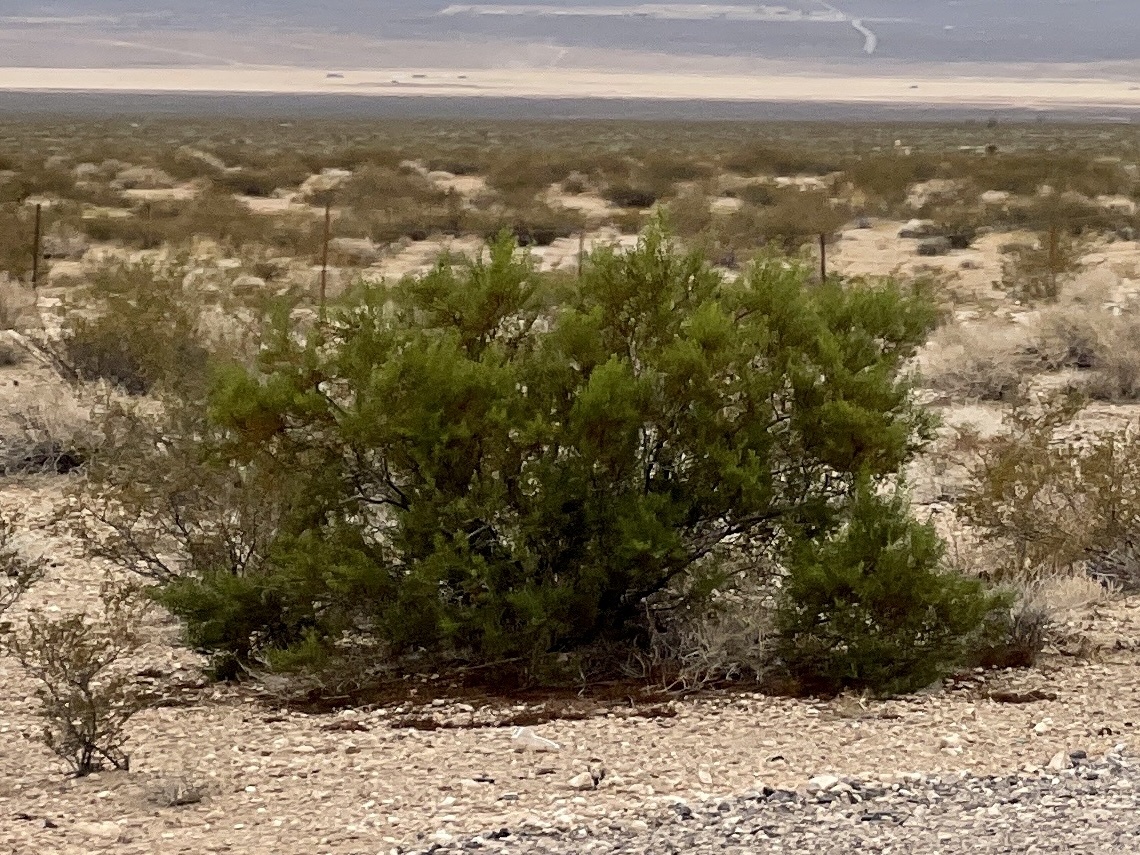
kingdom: Plantae
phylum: Tracheophyta
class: Magnoliopsida
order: Zygophyllales
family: Zygophyllaceae
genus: Larrea
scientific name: Larrea tridentata
